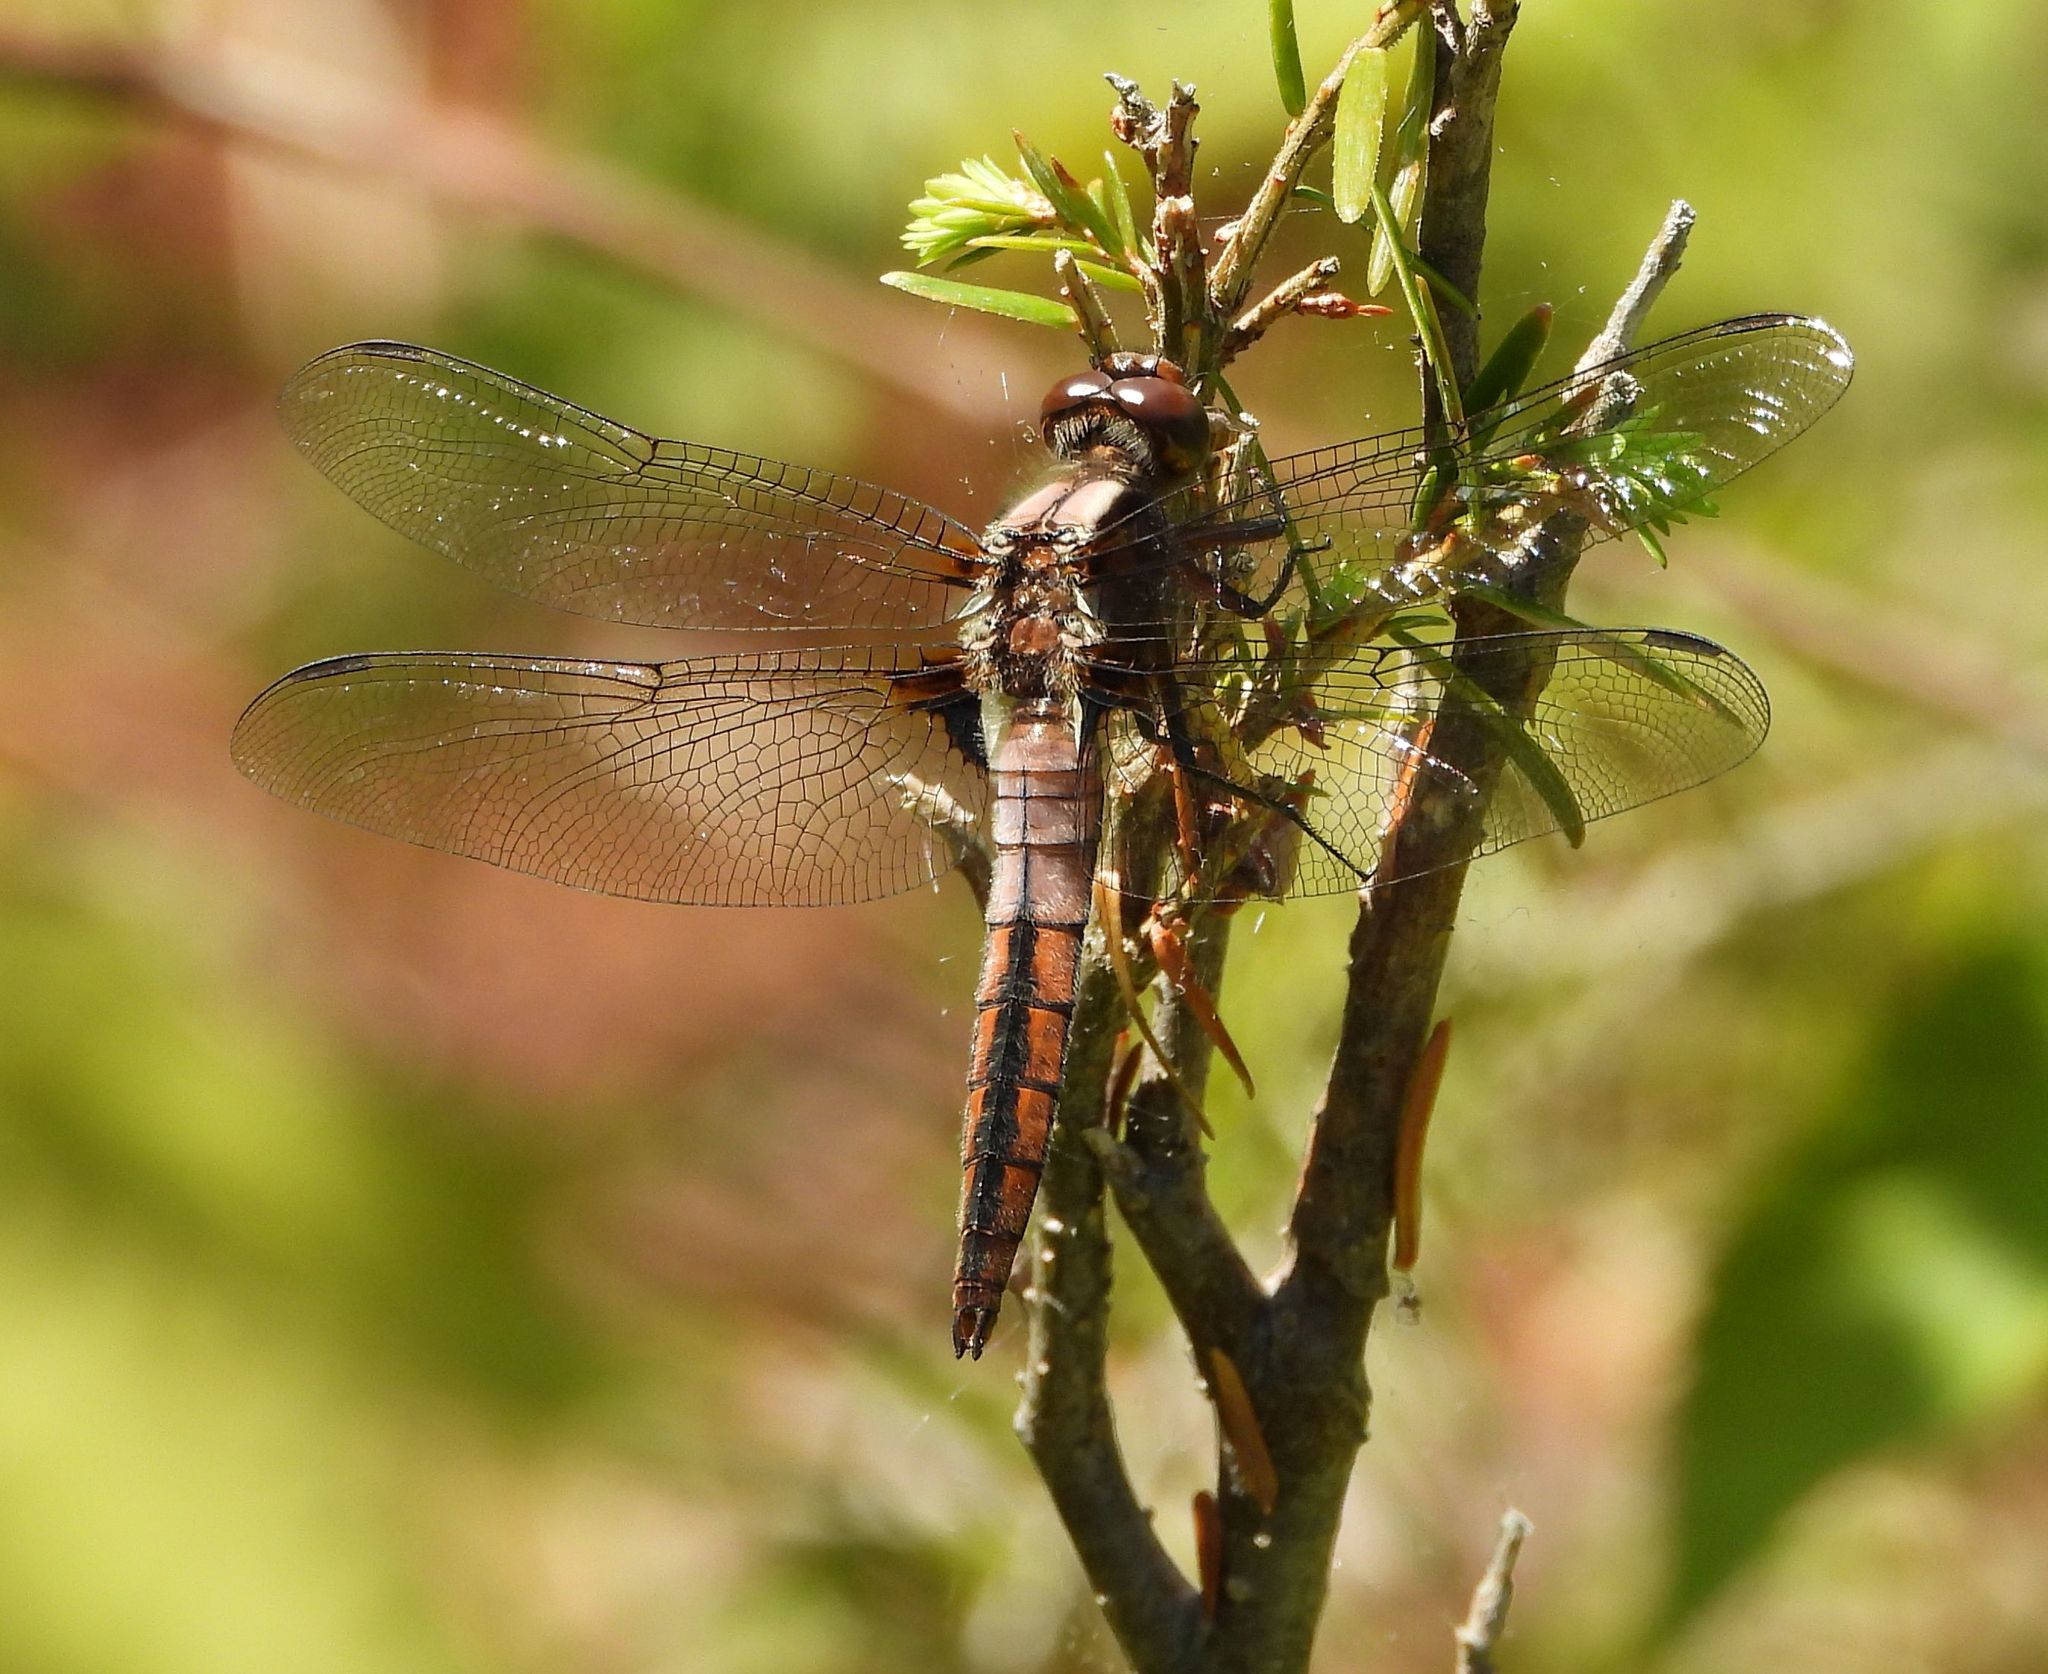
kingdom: Animalia
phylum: Arthropoda
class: Insecta
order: Odonata
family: Libellulidae
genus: Ladona
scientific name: Ladona julia
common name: Chalk-fronted corporal
